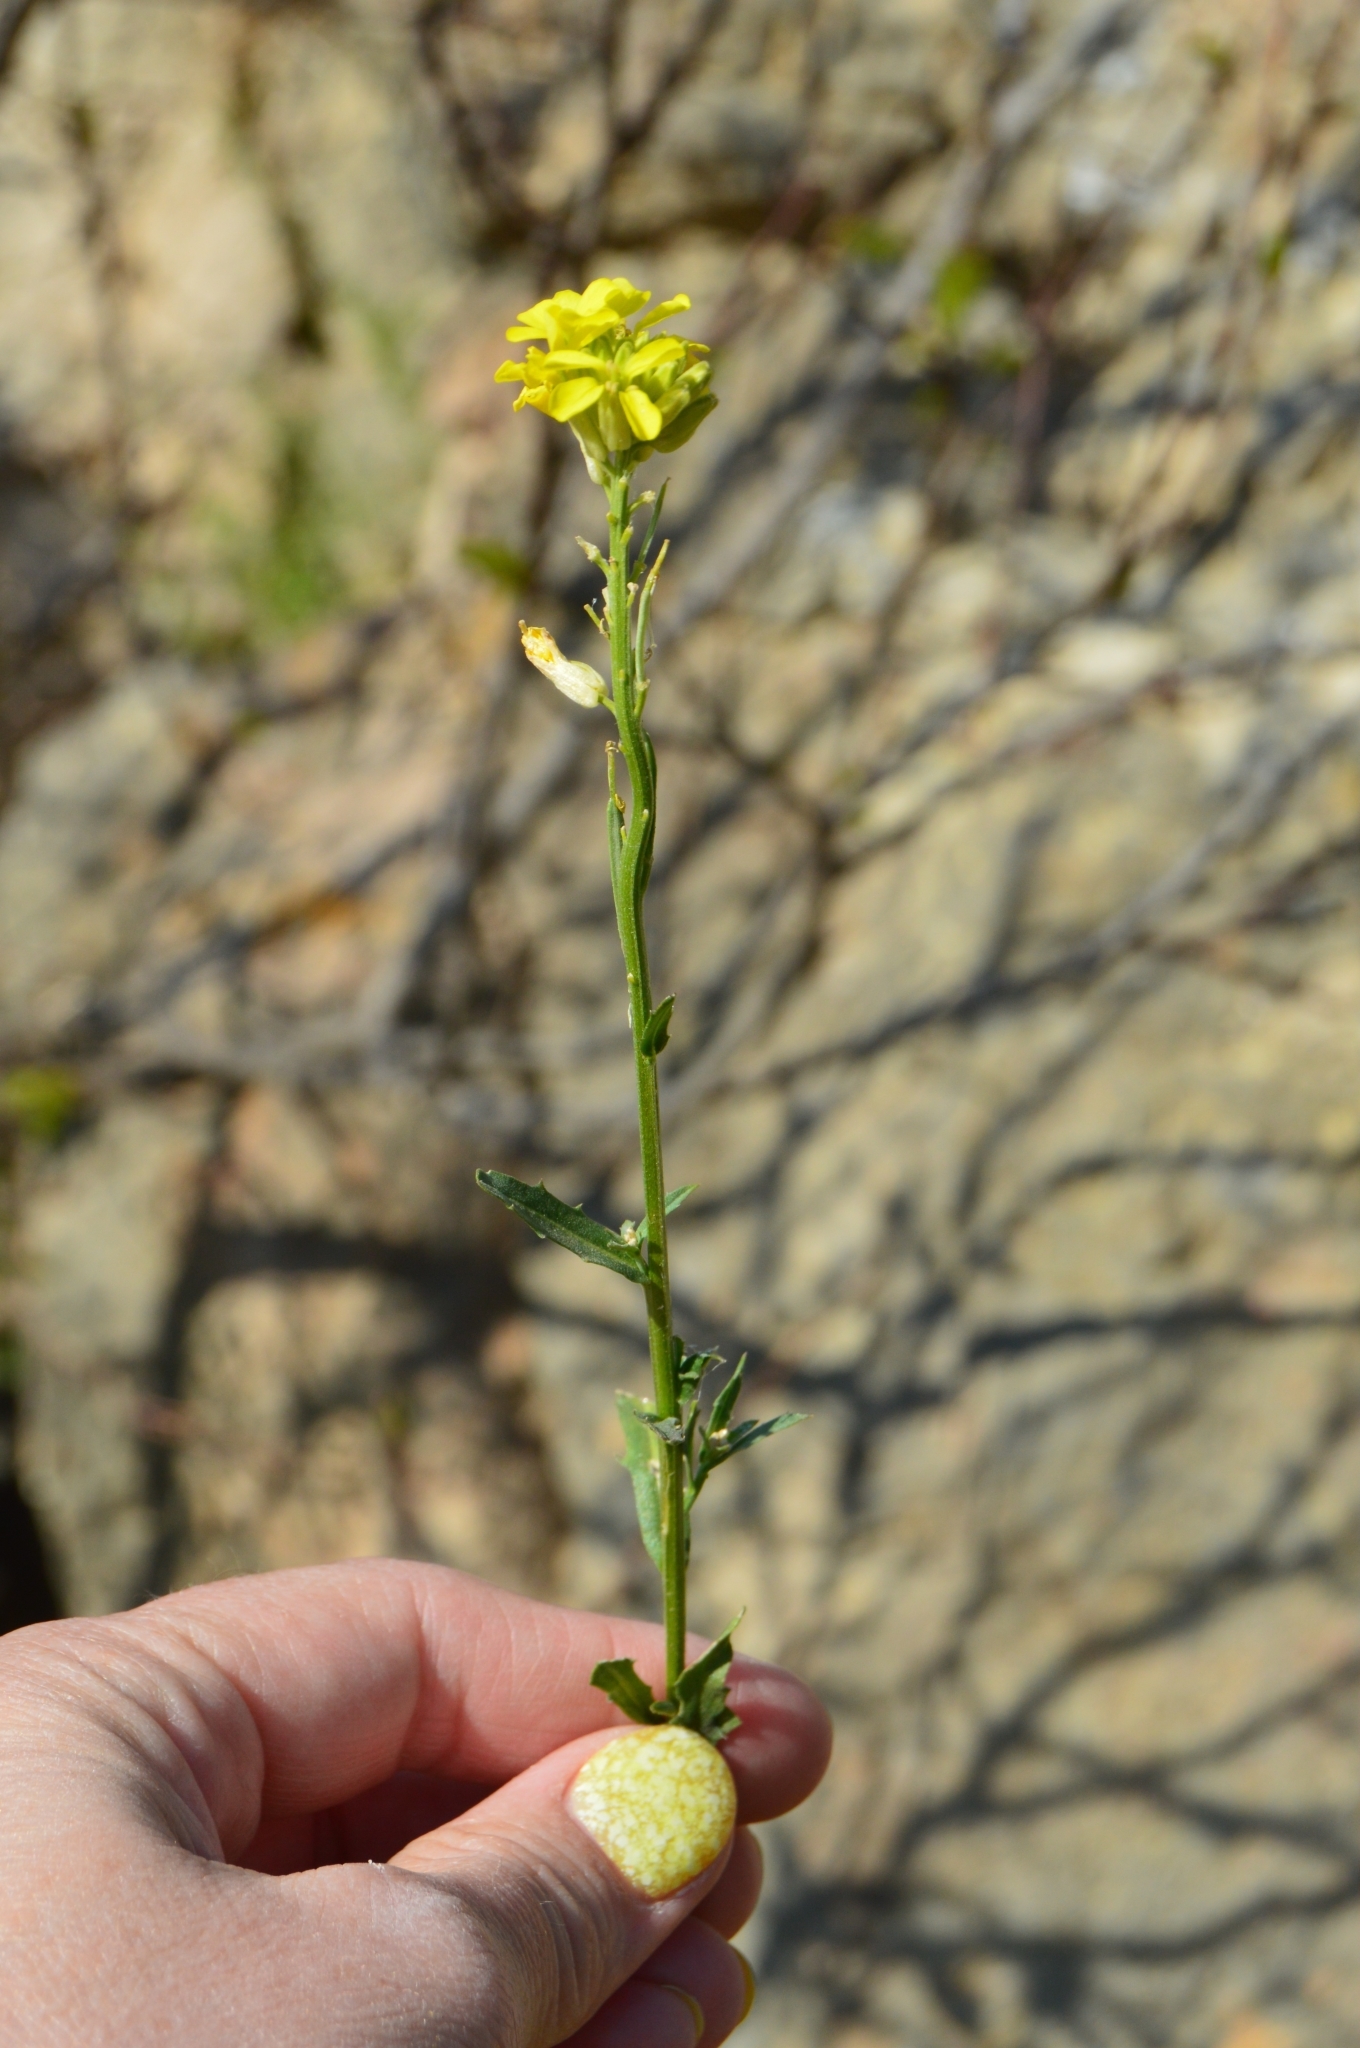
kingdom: Plantae
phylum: Tracheophyta
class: Magnoliopsida
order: Brassicales
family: Brassicaceae
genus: Erysimum
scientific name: Erysimum cuspidatum
